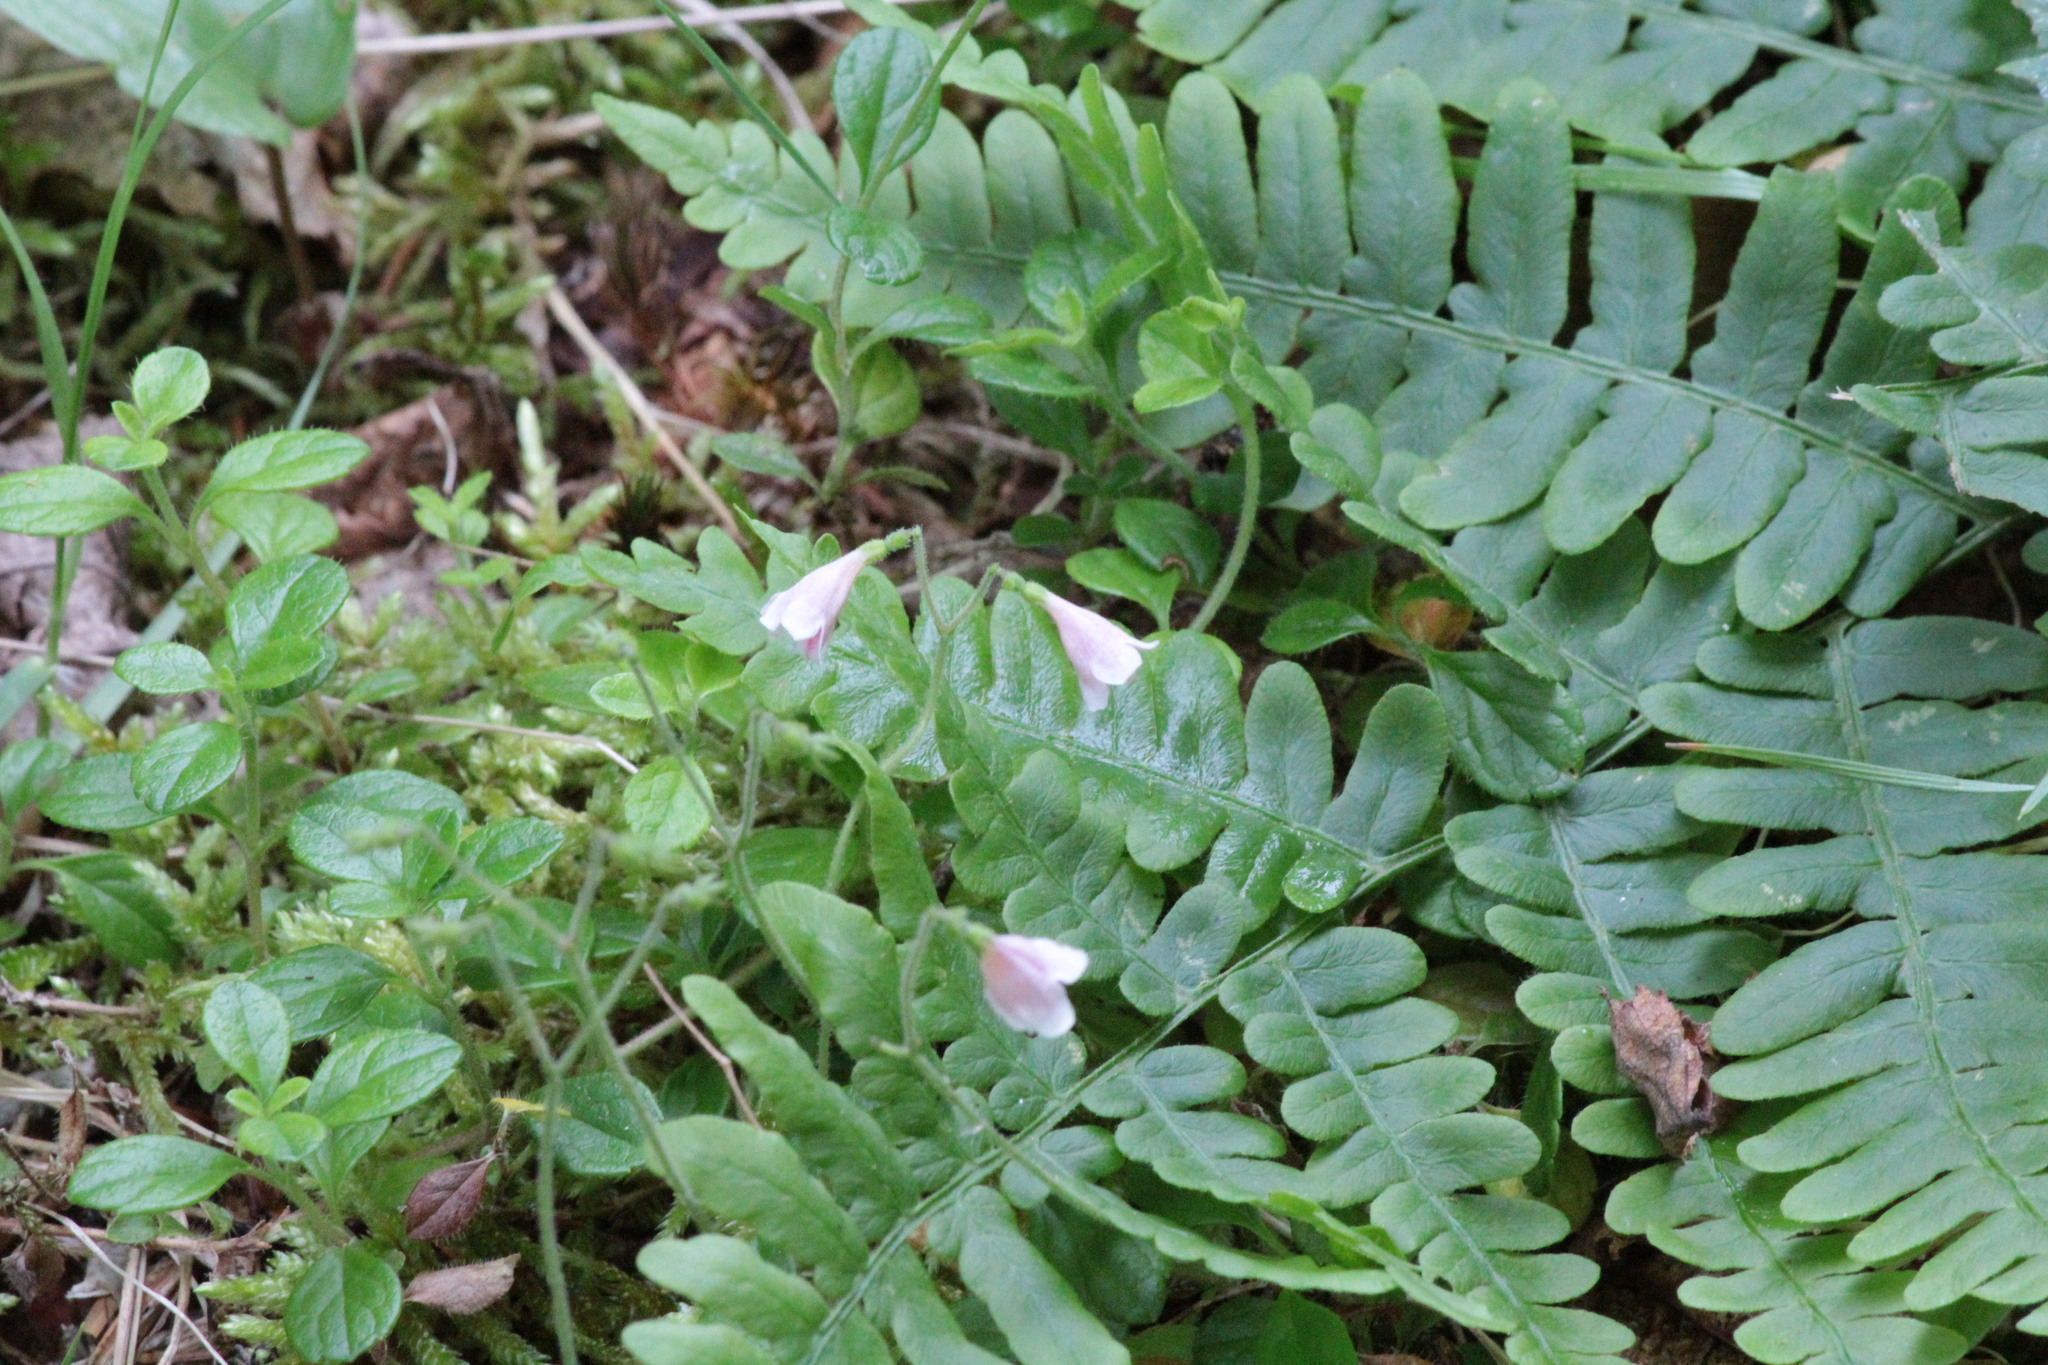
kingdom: Plantae
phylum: Tracheophyta
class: Magnoliopsida
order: Dipsacales
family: Caprifoliaceae
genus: Linnaea
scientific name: Linnaea borealis
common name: Twinflower
